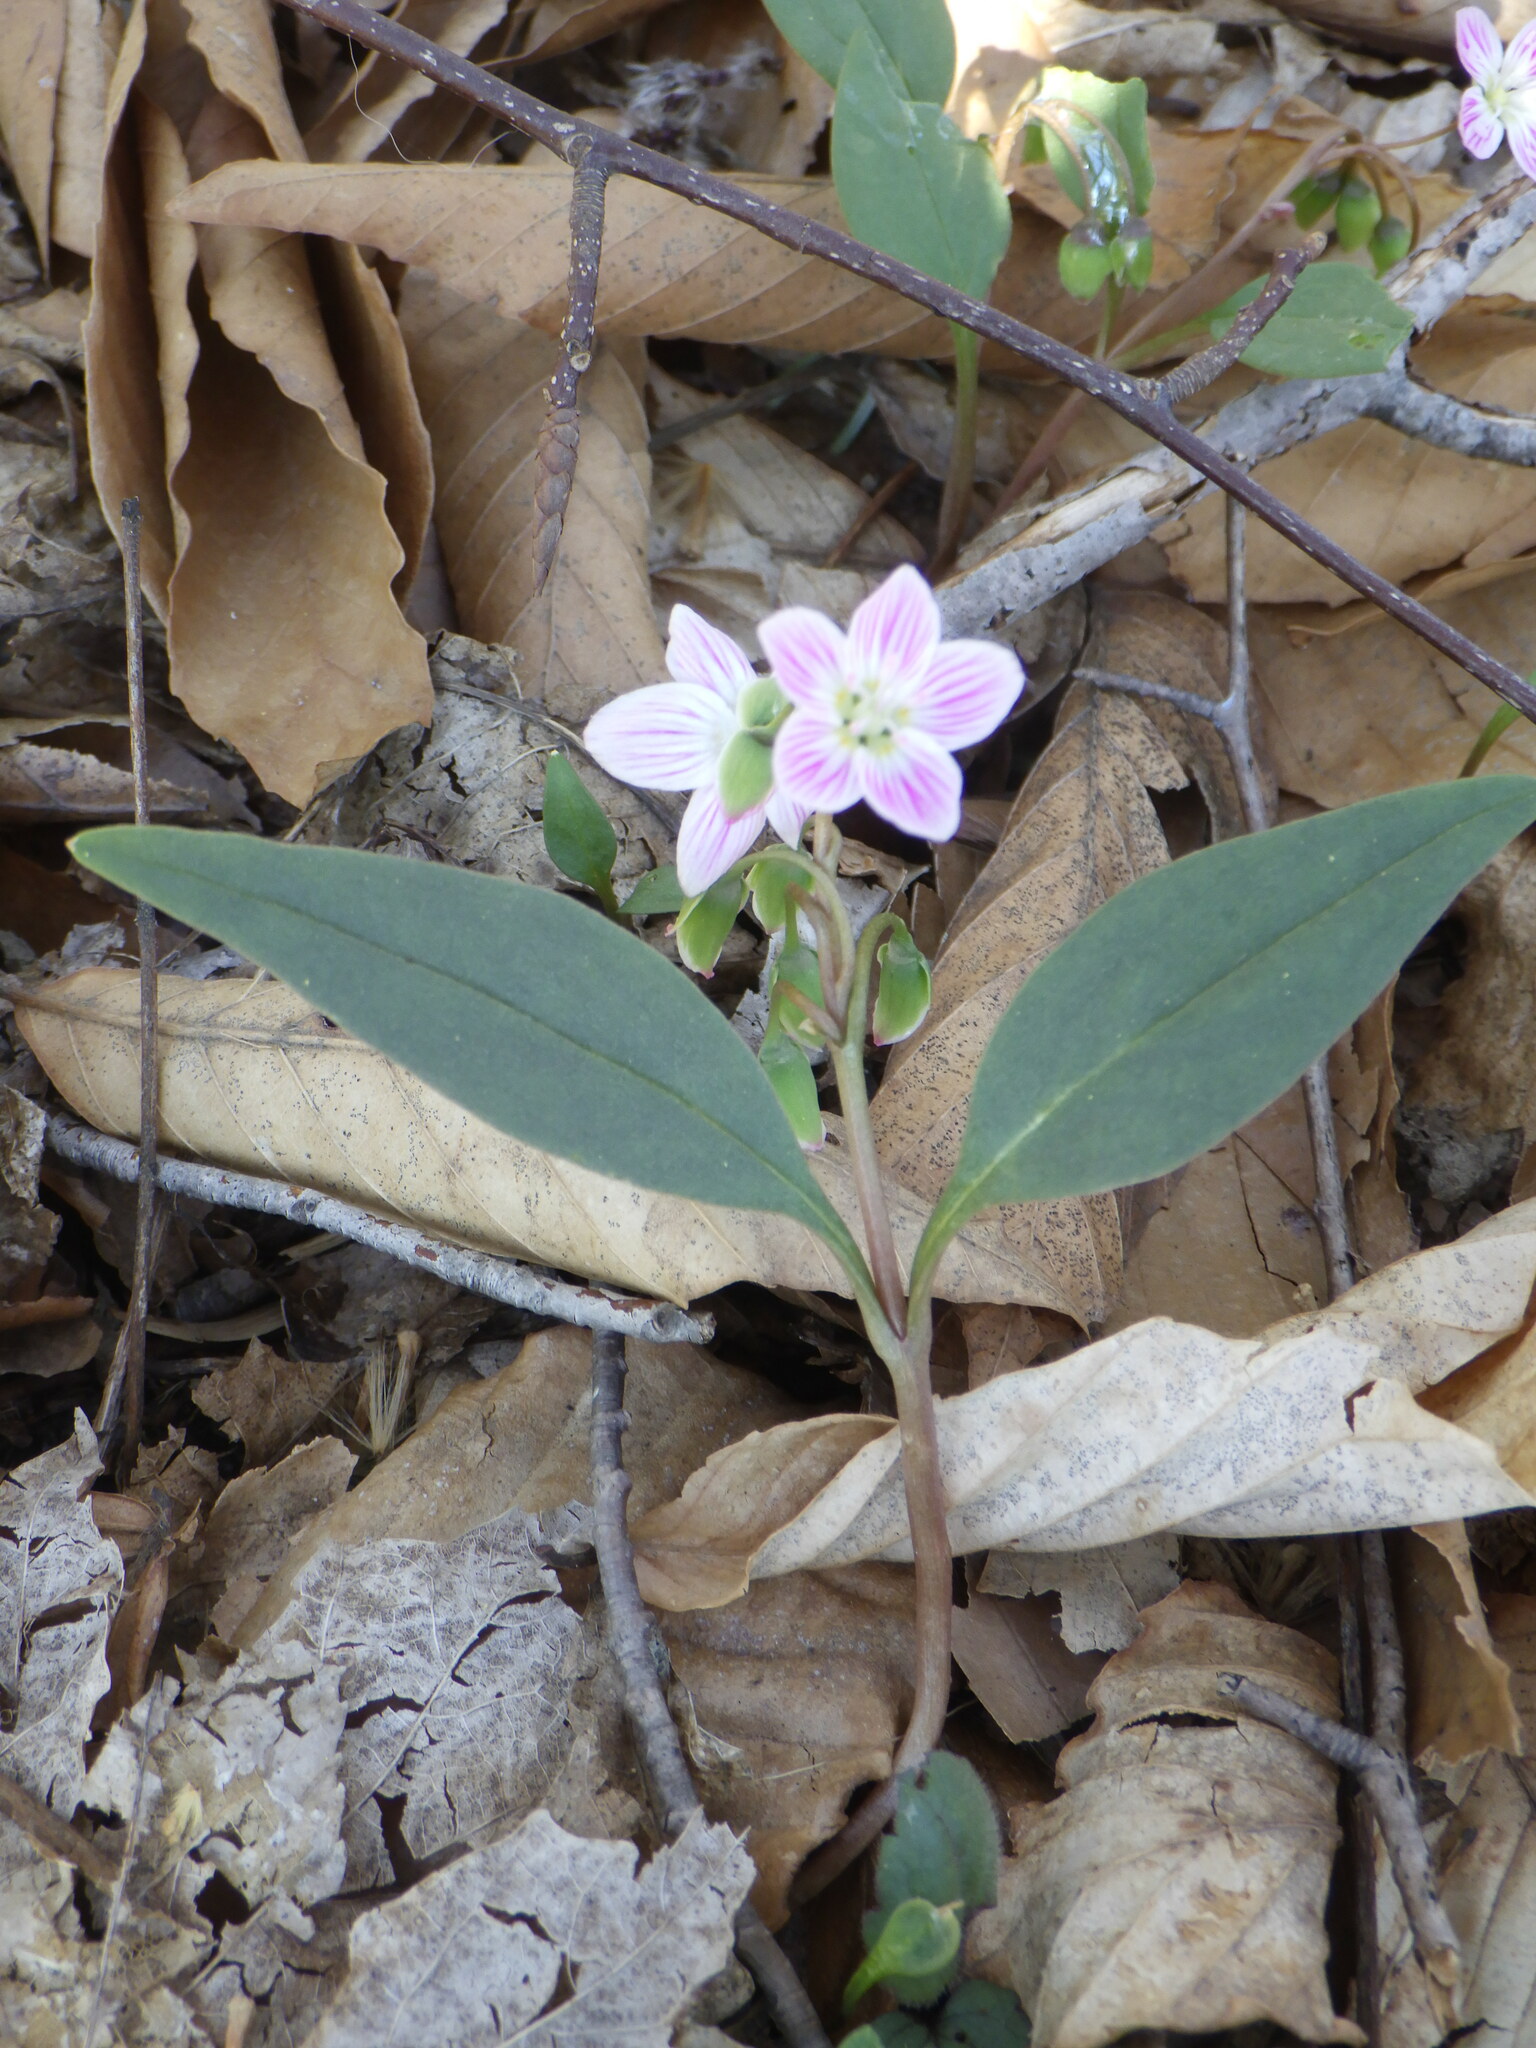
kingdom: Plantae
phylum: Tracheophyta
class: Magnoliopsida
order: Caryophyllales
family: Montiaceae
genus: Claytonia
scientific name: Claytonia caroliniana
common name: Carolina spring beauty
